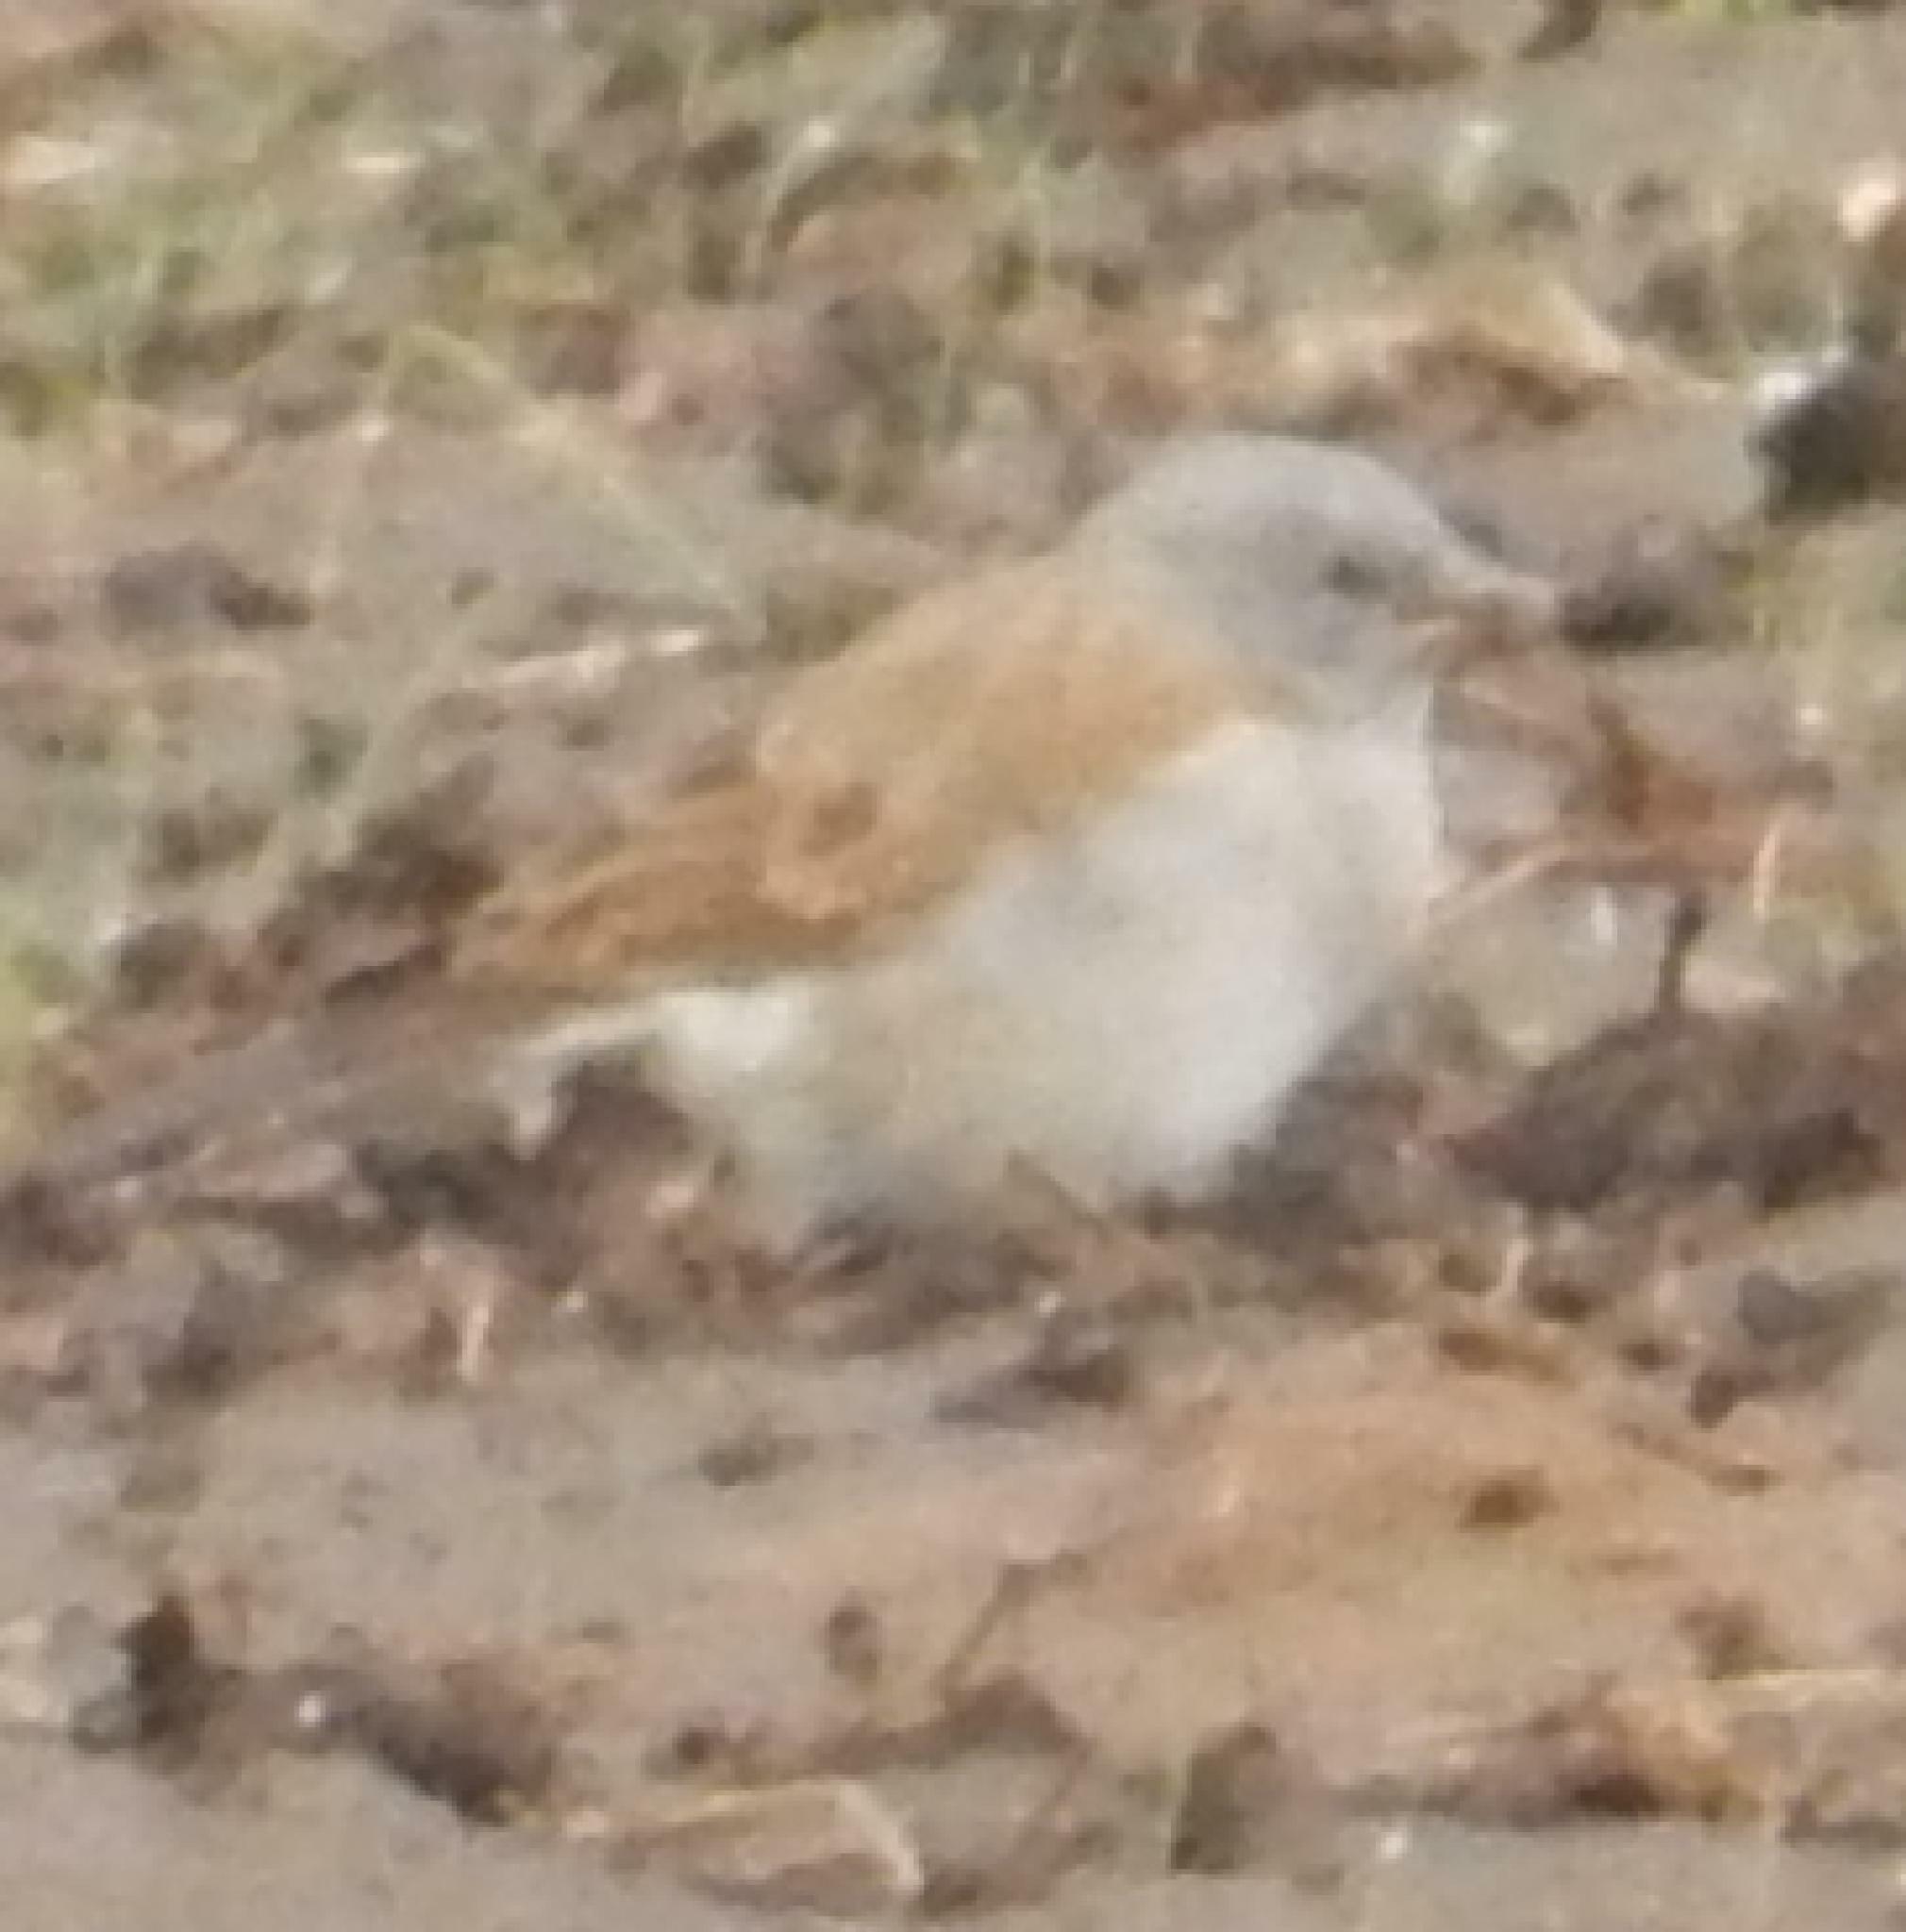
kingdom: Animalia
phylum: Chordata
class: Aves
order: Passeriformes
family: Passeridae
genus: Passer
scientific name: Passer diffusus
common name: Southern grey-headed sparrow
